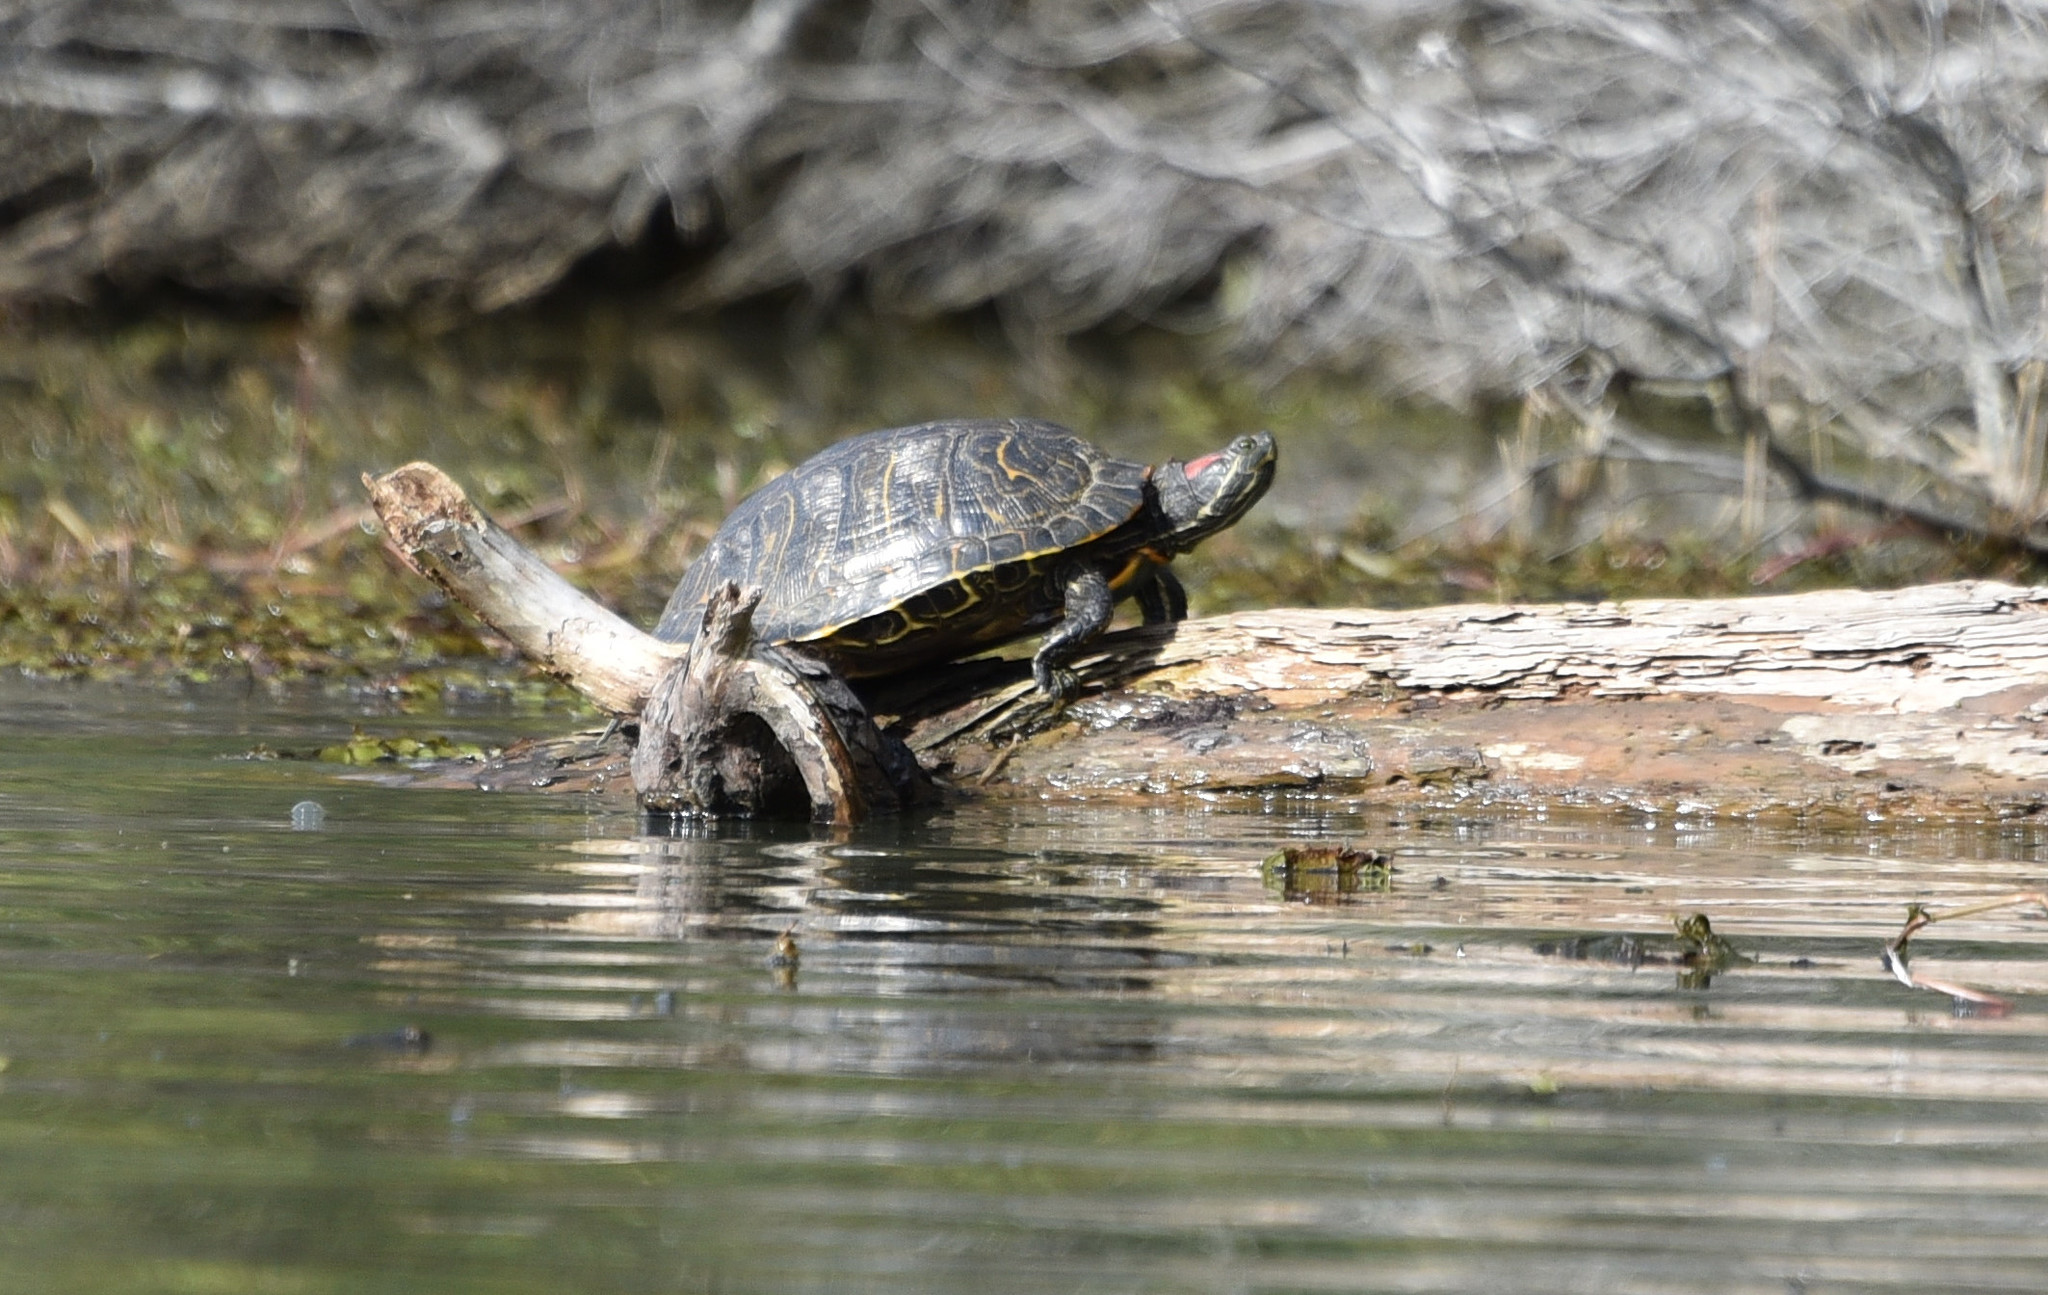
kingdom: Animalia
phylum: Chordata
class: Testudines
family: Emydidae
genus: Trachemys
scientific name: Trachemys scripta
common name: Slider
